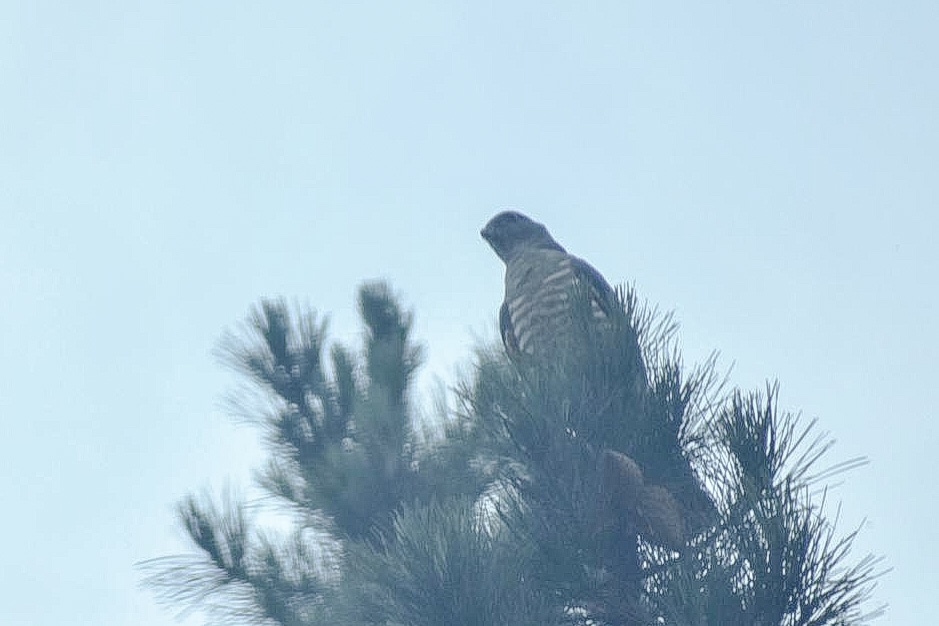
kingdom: Animalia
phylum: Chordata
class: Aves
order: Accipitriformes
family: Accipitridae
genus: Aviceda
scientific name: Aviceda cuculoides
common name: African cuckoo-hawk
